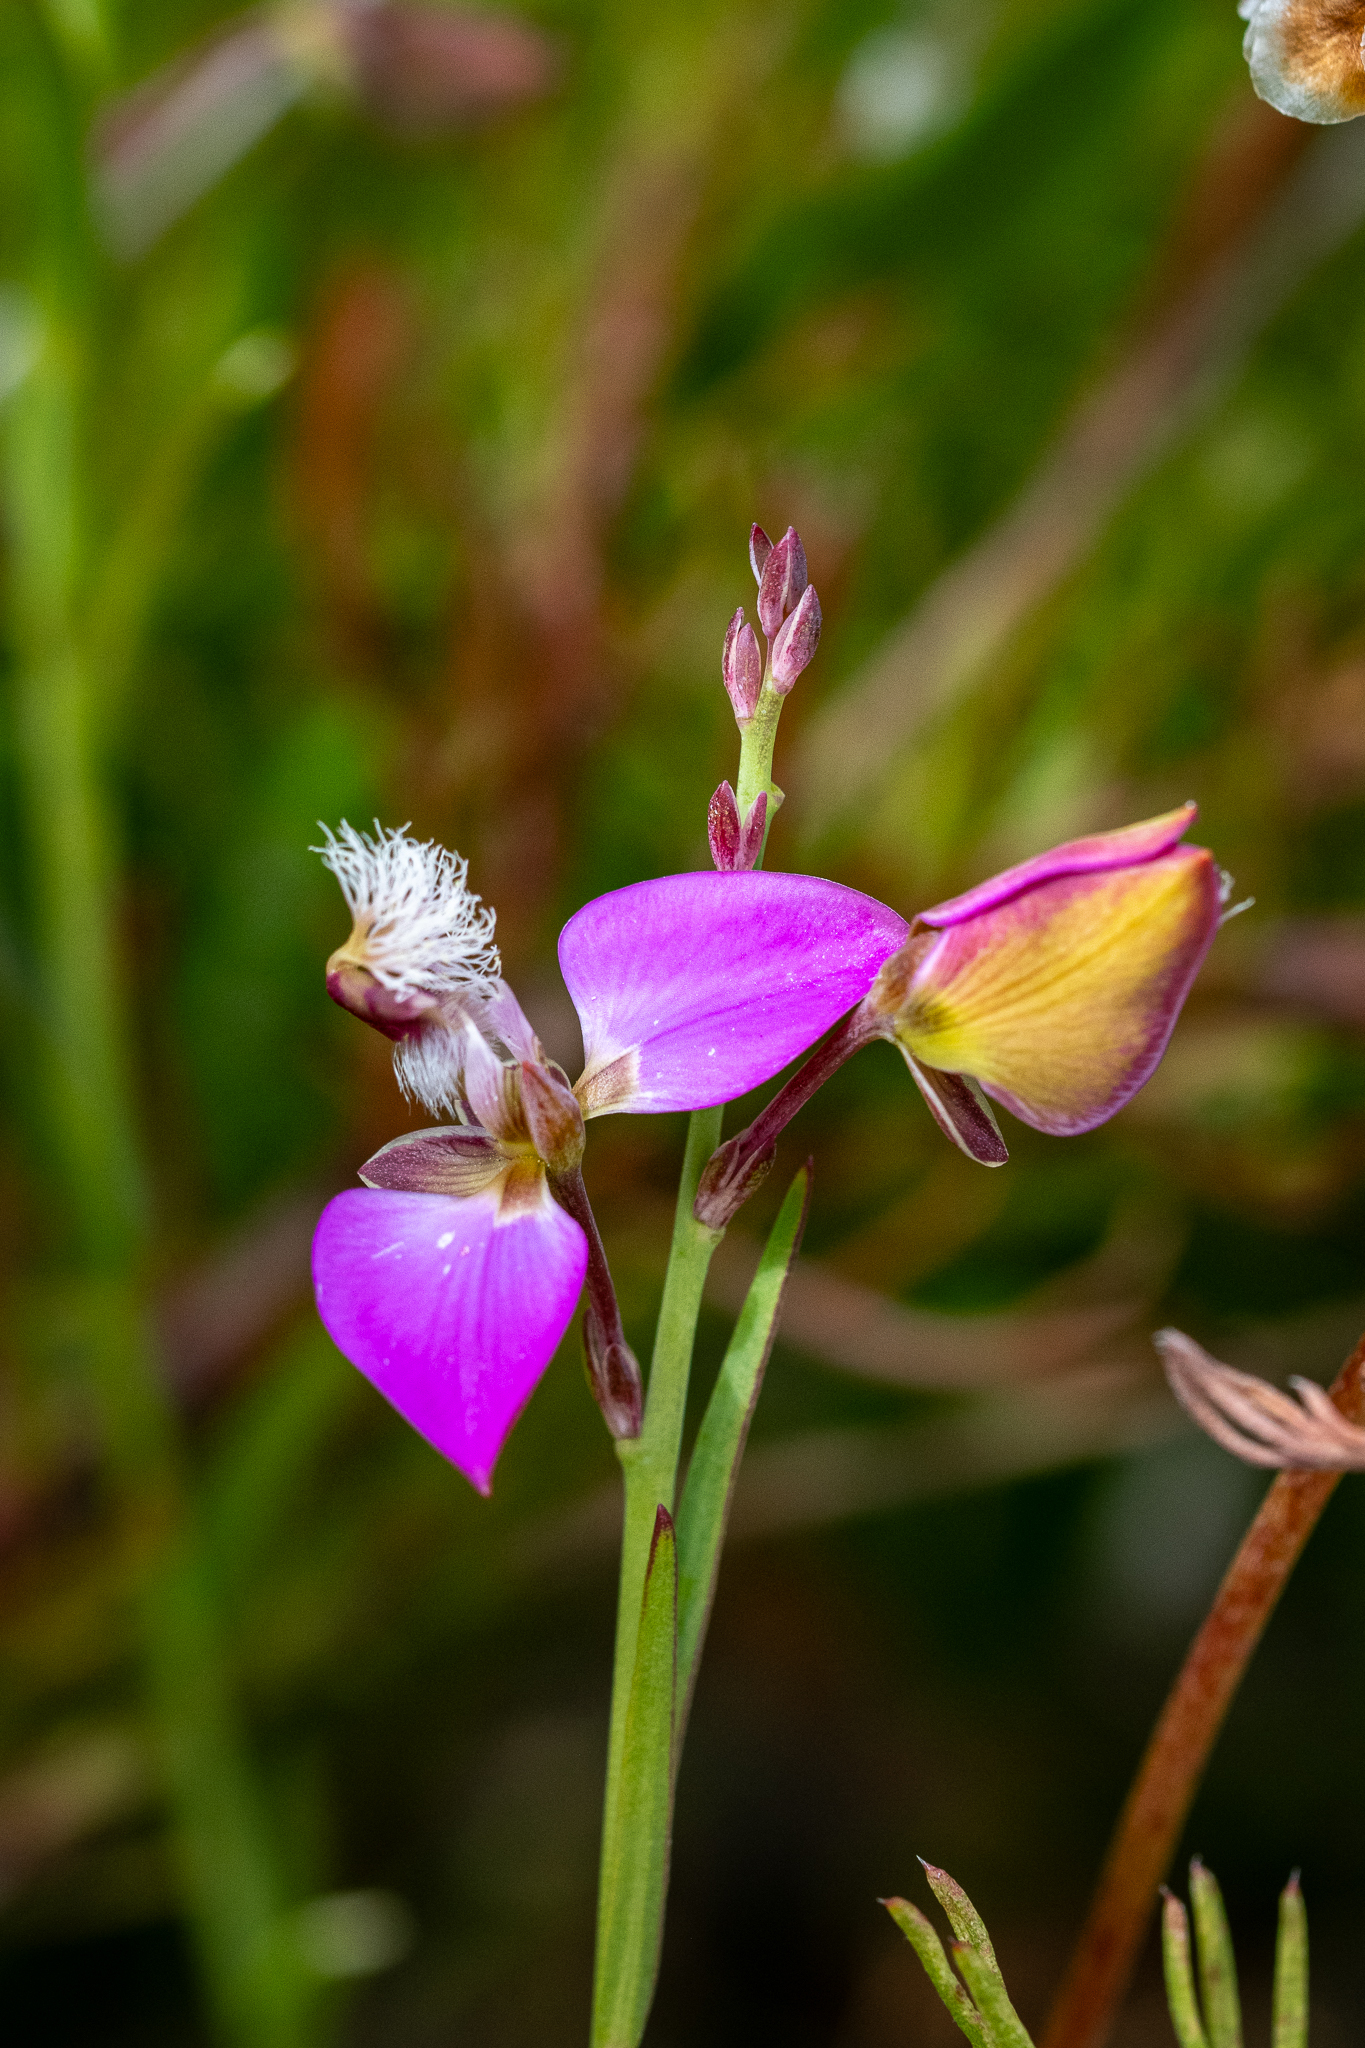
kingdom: Plantae
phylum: Tracheophyta
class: Magnoliopsida
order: Fabales
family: Polygalaceae
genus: Polygala
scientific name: Polygala bracteolata
